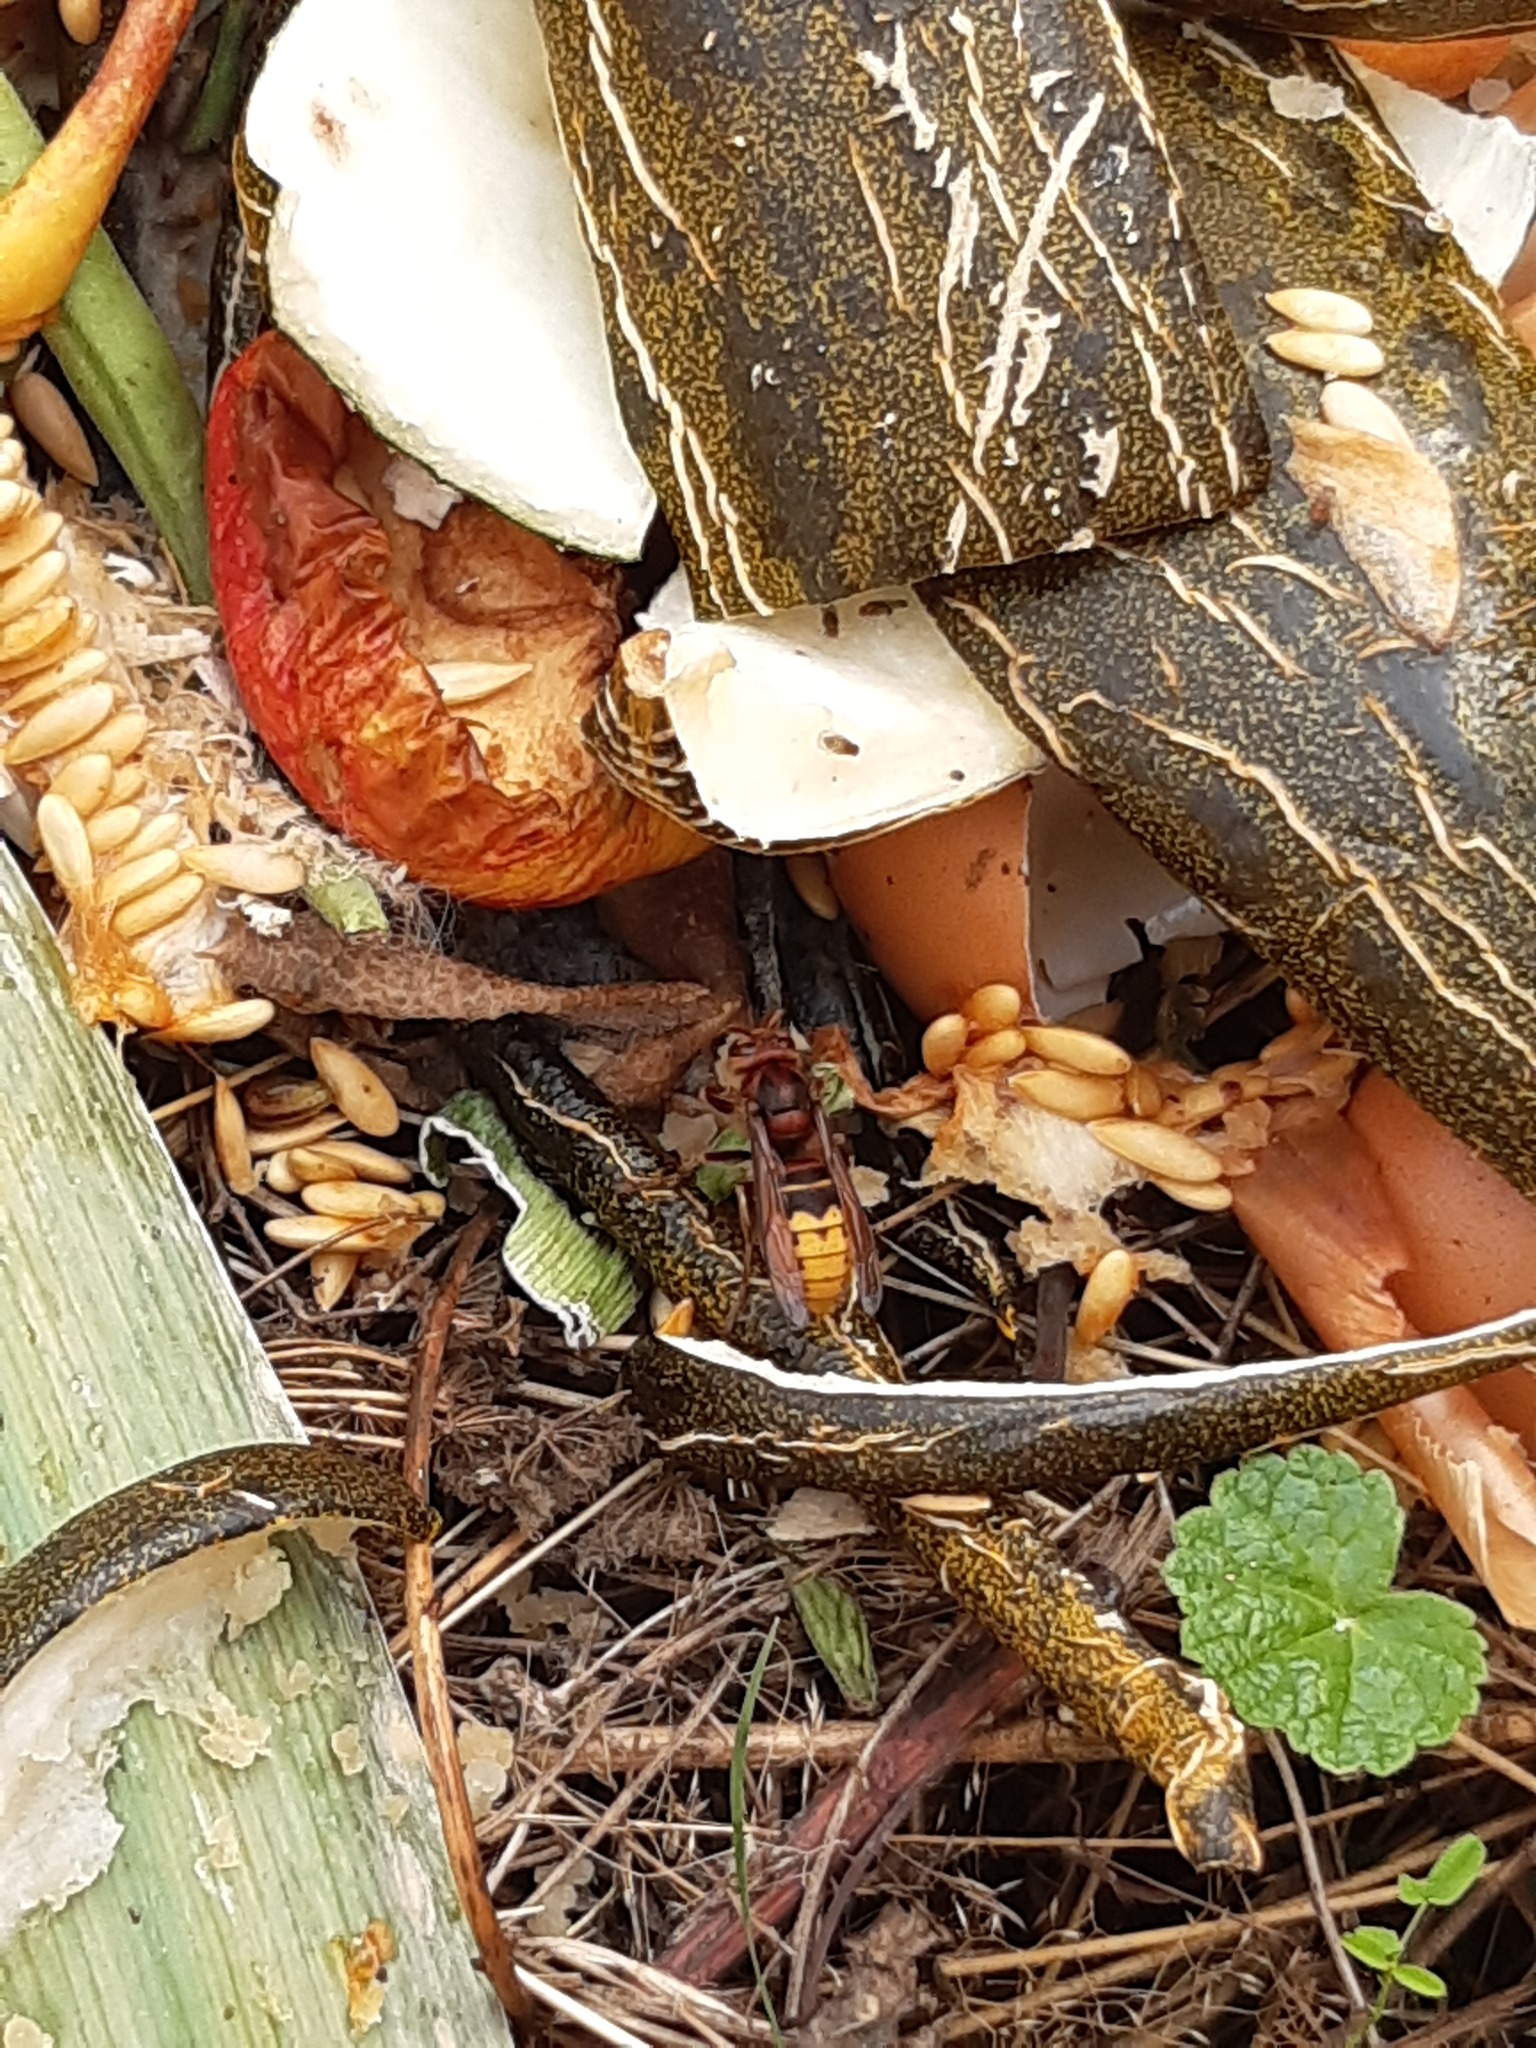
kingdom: Animalia
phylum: Arthropoda
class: Insecta
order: Hymenoptera
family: Vespidae
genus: Vespa
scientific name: Vespa crabro
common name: Hornet
